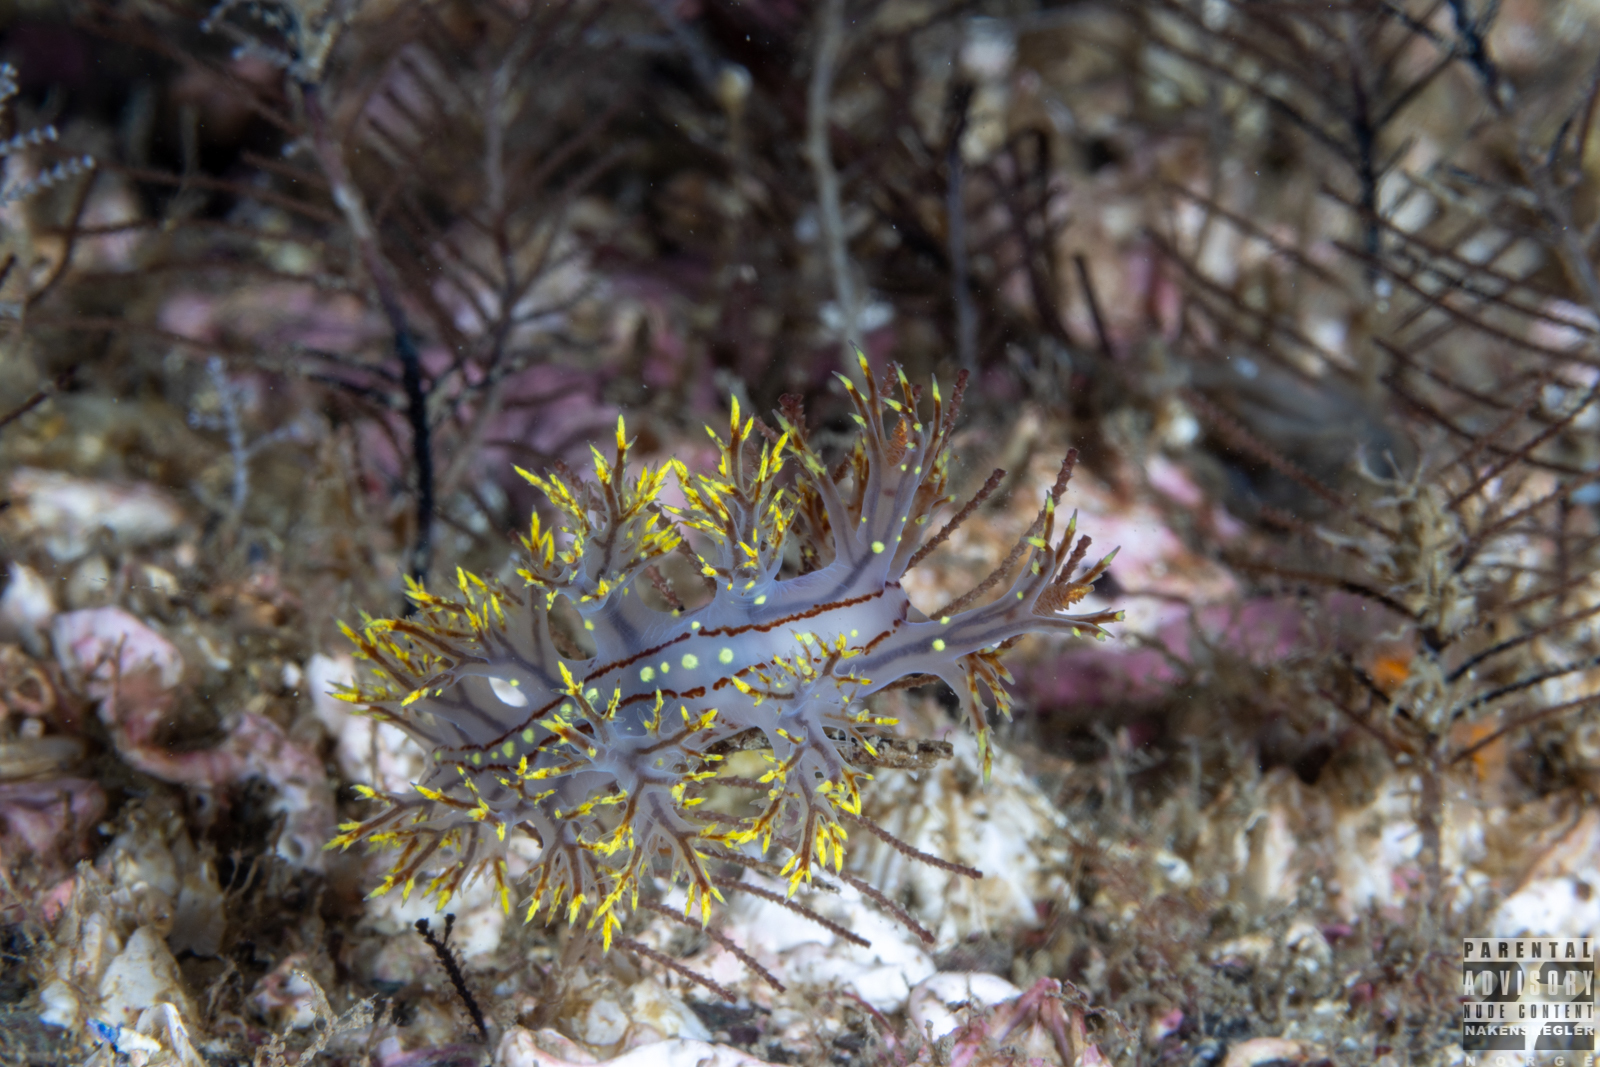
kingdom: Animalia
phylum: Mollusca
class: Gastropoda
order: Nudibranchia
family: Dendronotidae
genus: Dendronotus
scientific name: Dendronotus yrjargul
